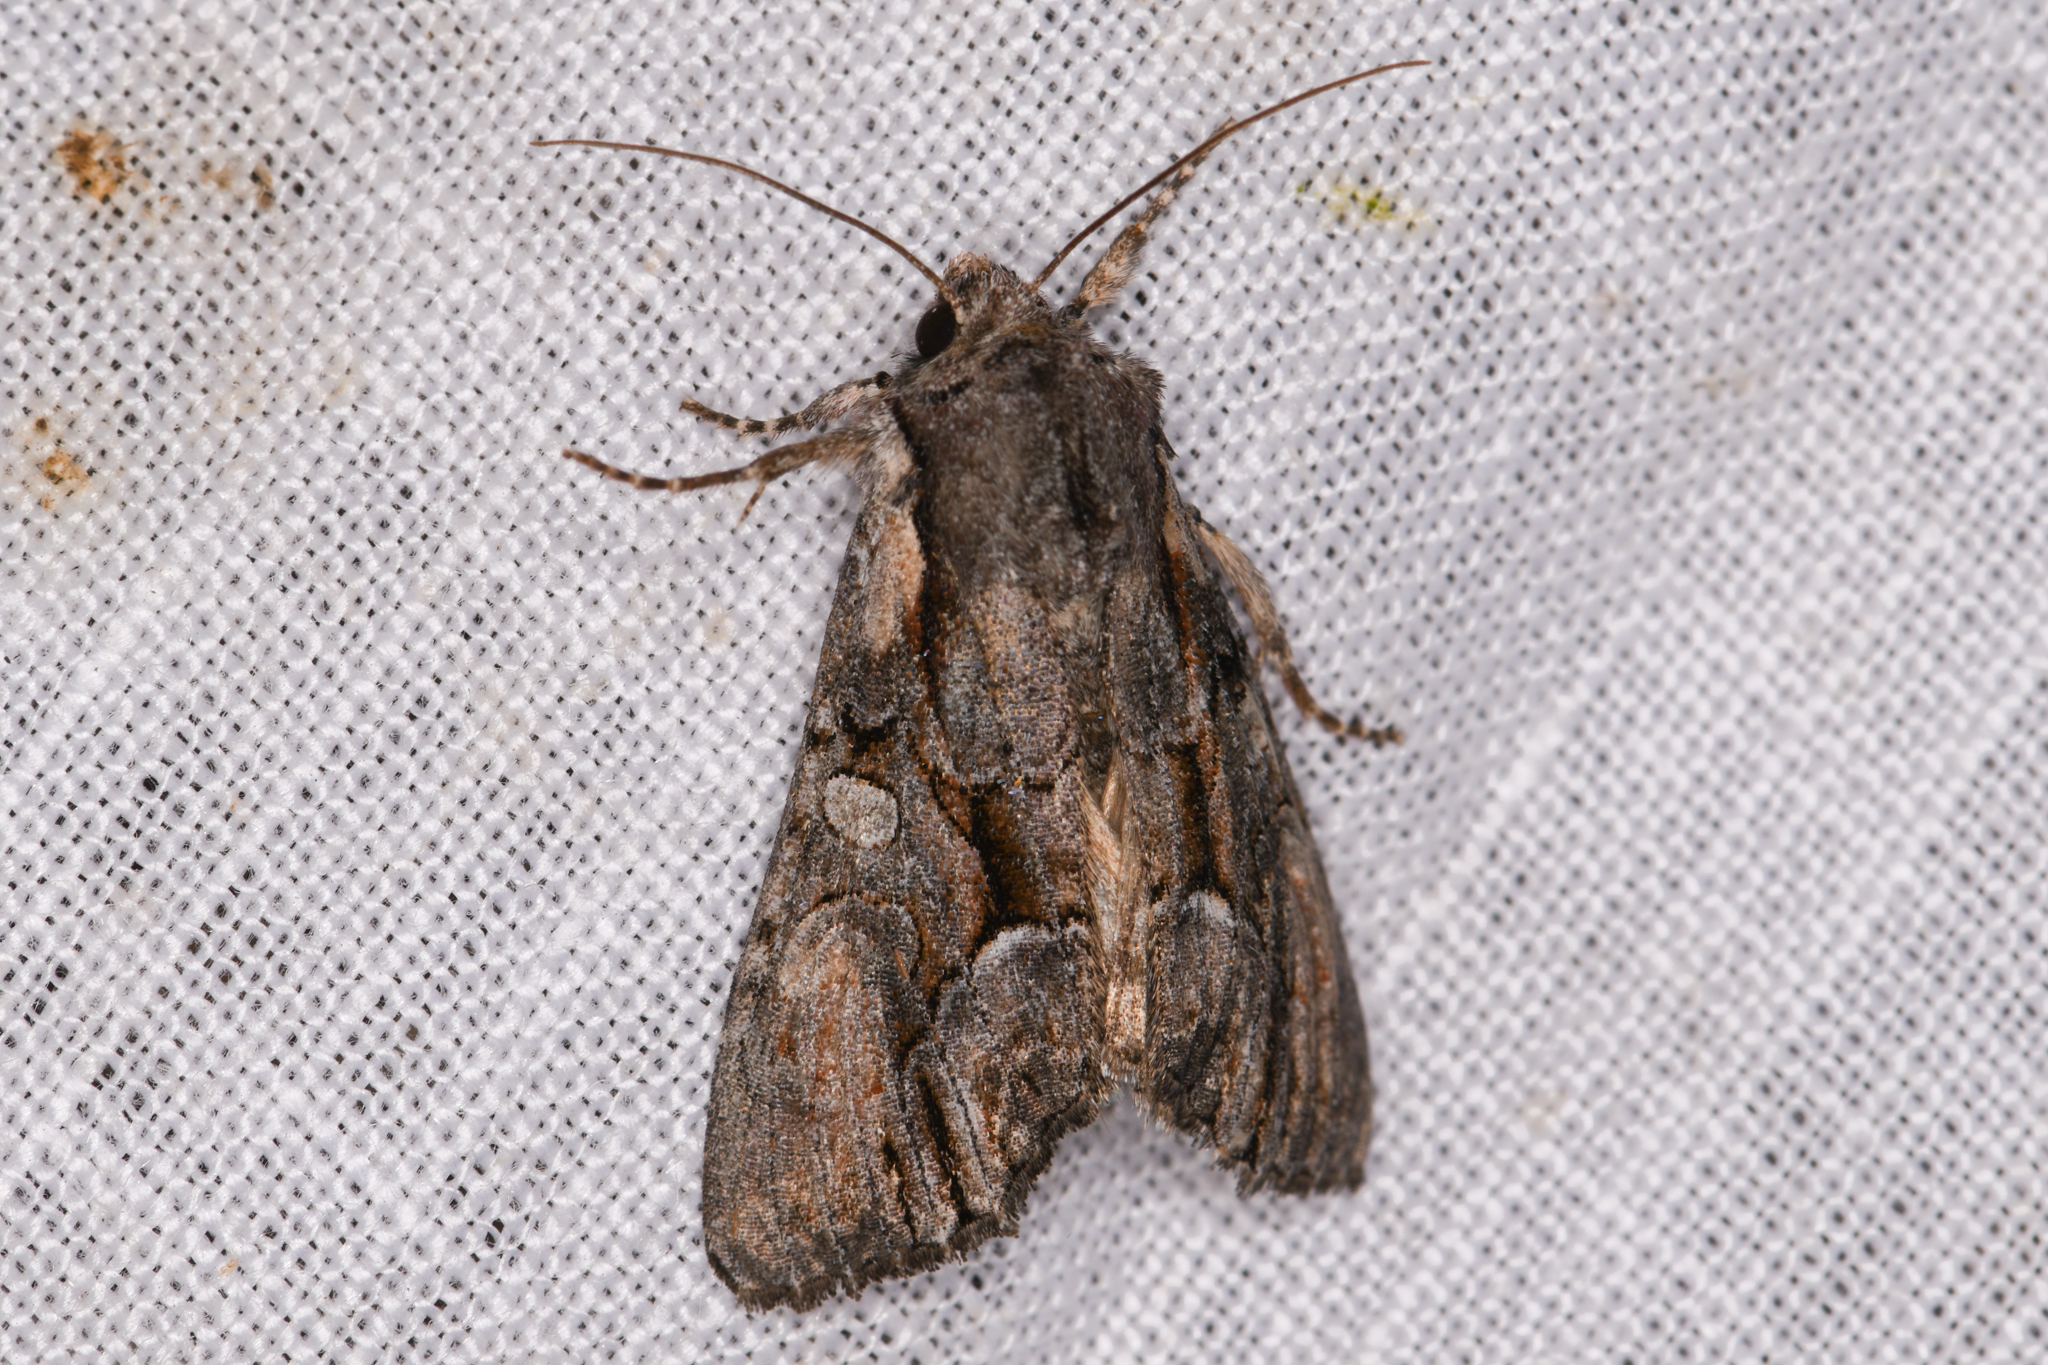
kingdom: Animalia
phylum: Arthropoda
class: Insecta
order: Lepidoptera
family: Noctuidae
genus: Lacanobia
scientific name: Lacanobia subjuncta
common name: Speckled cutworm moth
